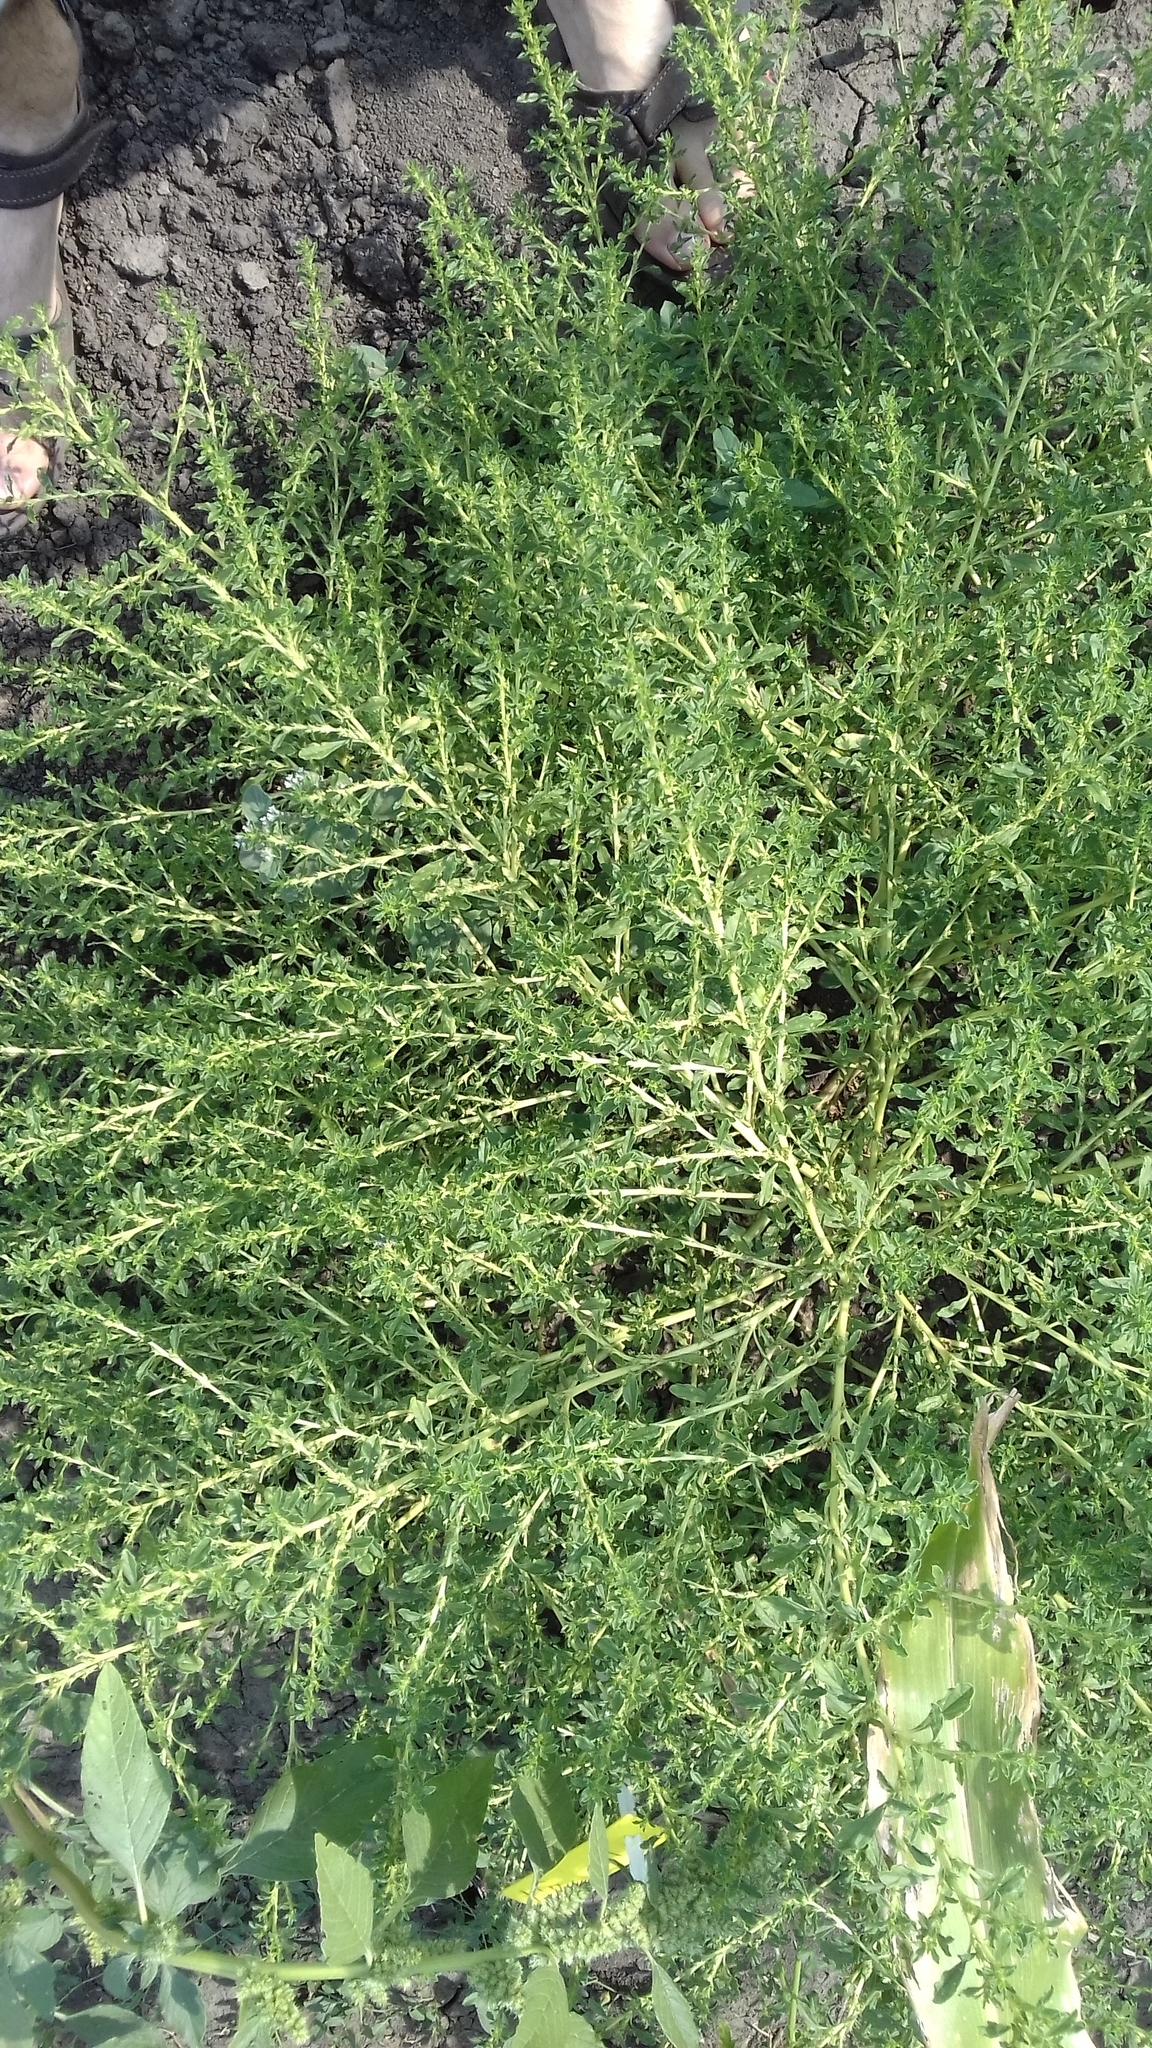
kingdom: Plantae
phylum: Tracheophyta
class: Magnoliopsida
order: Caryophyllales
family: Amaranthaceae
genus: Amaranthus
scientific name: Amaranthus albus
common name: White pigweed
